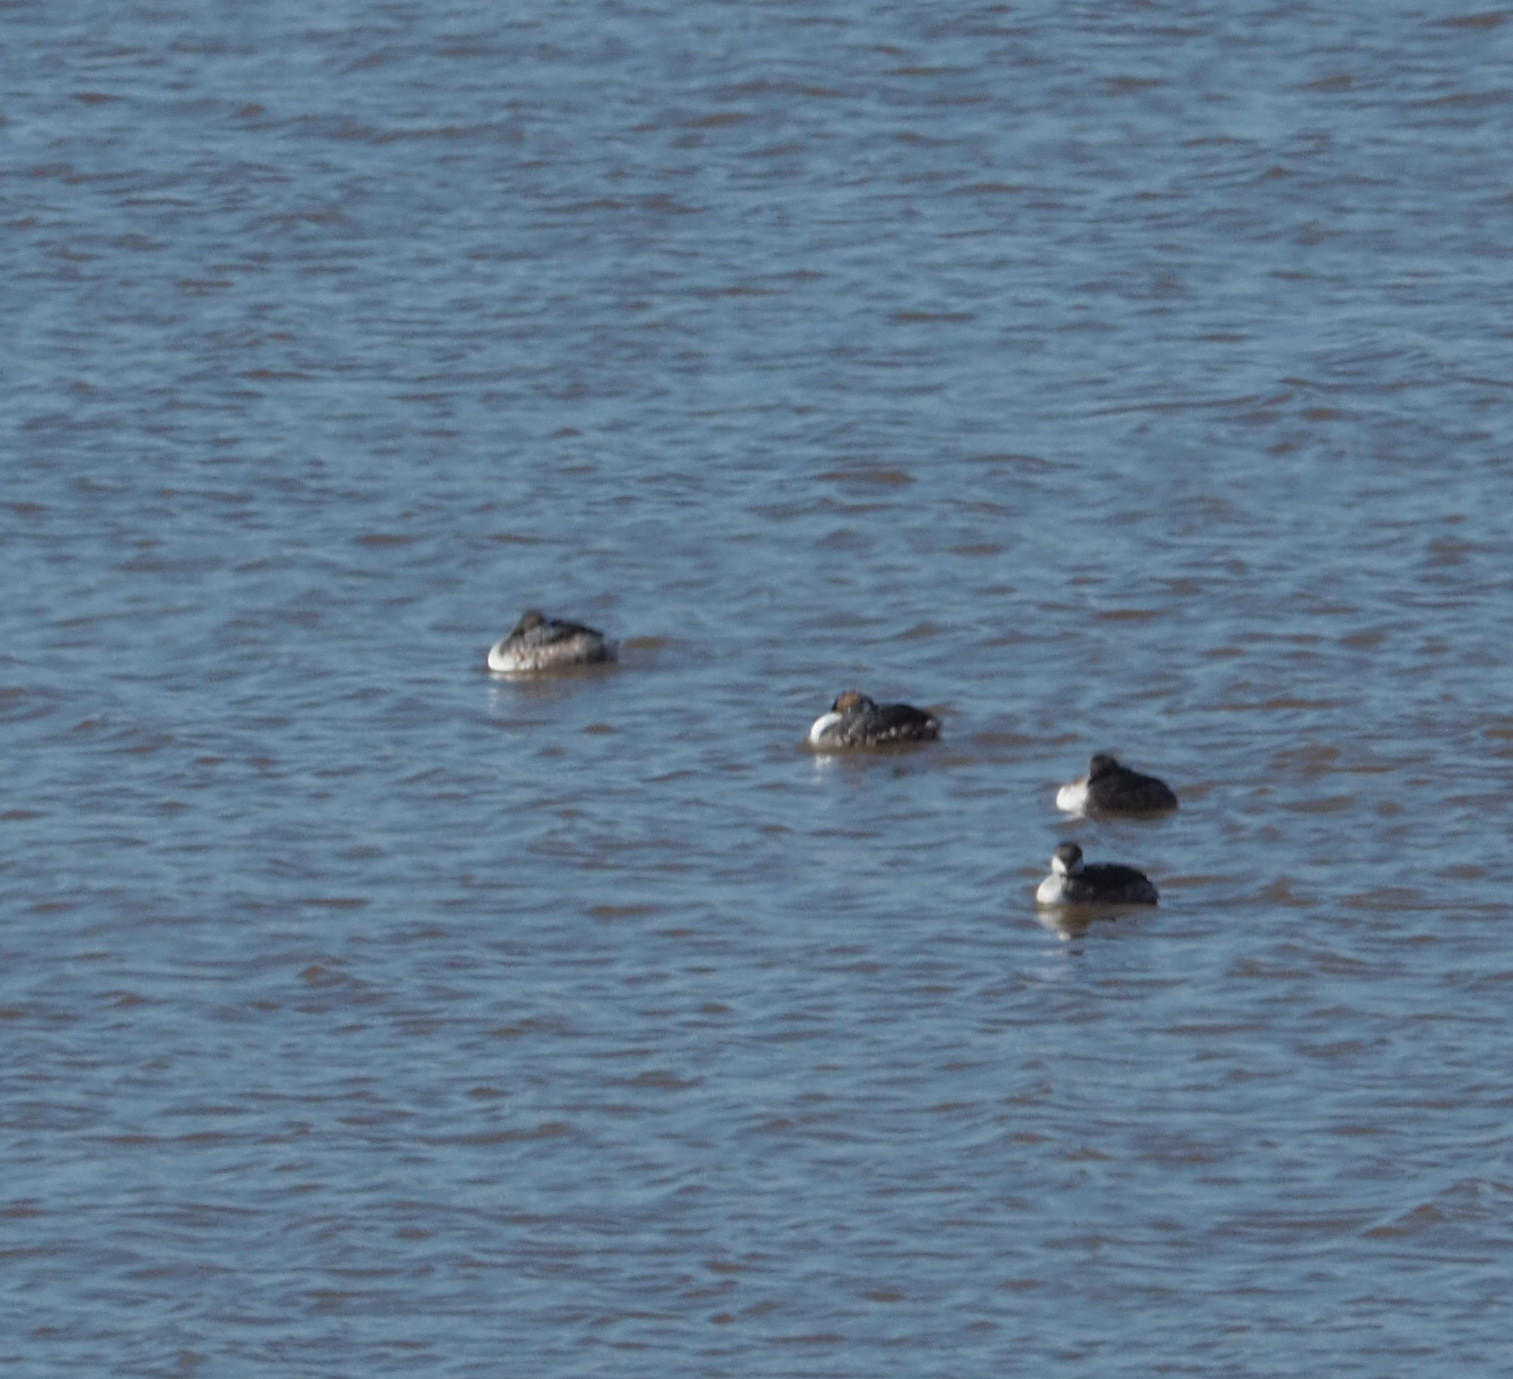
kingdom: Animalia
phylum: Chordata
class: Aves
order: Podicipediformes
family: Podicipedidae
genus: Podiceps
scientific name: Podiceps auritus
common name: Horned grebe
